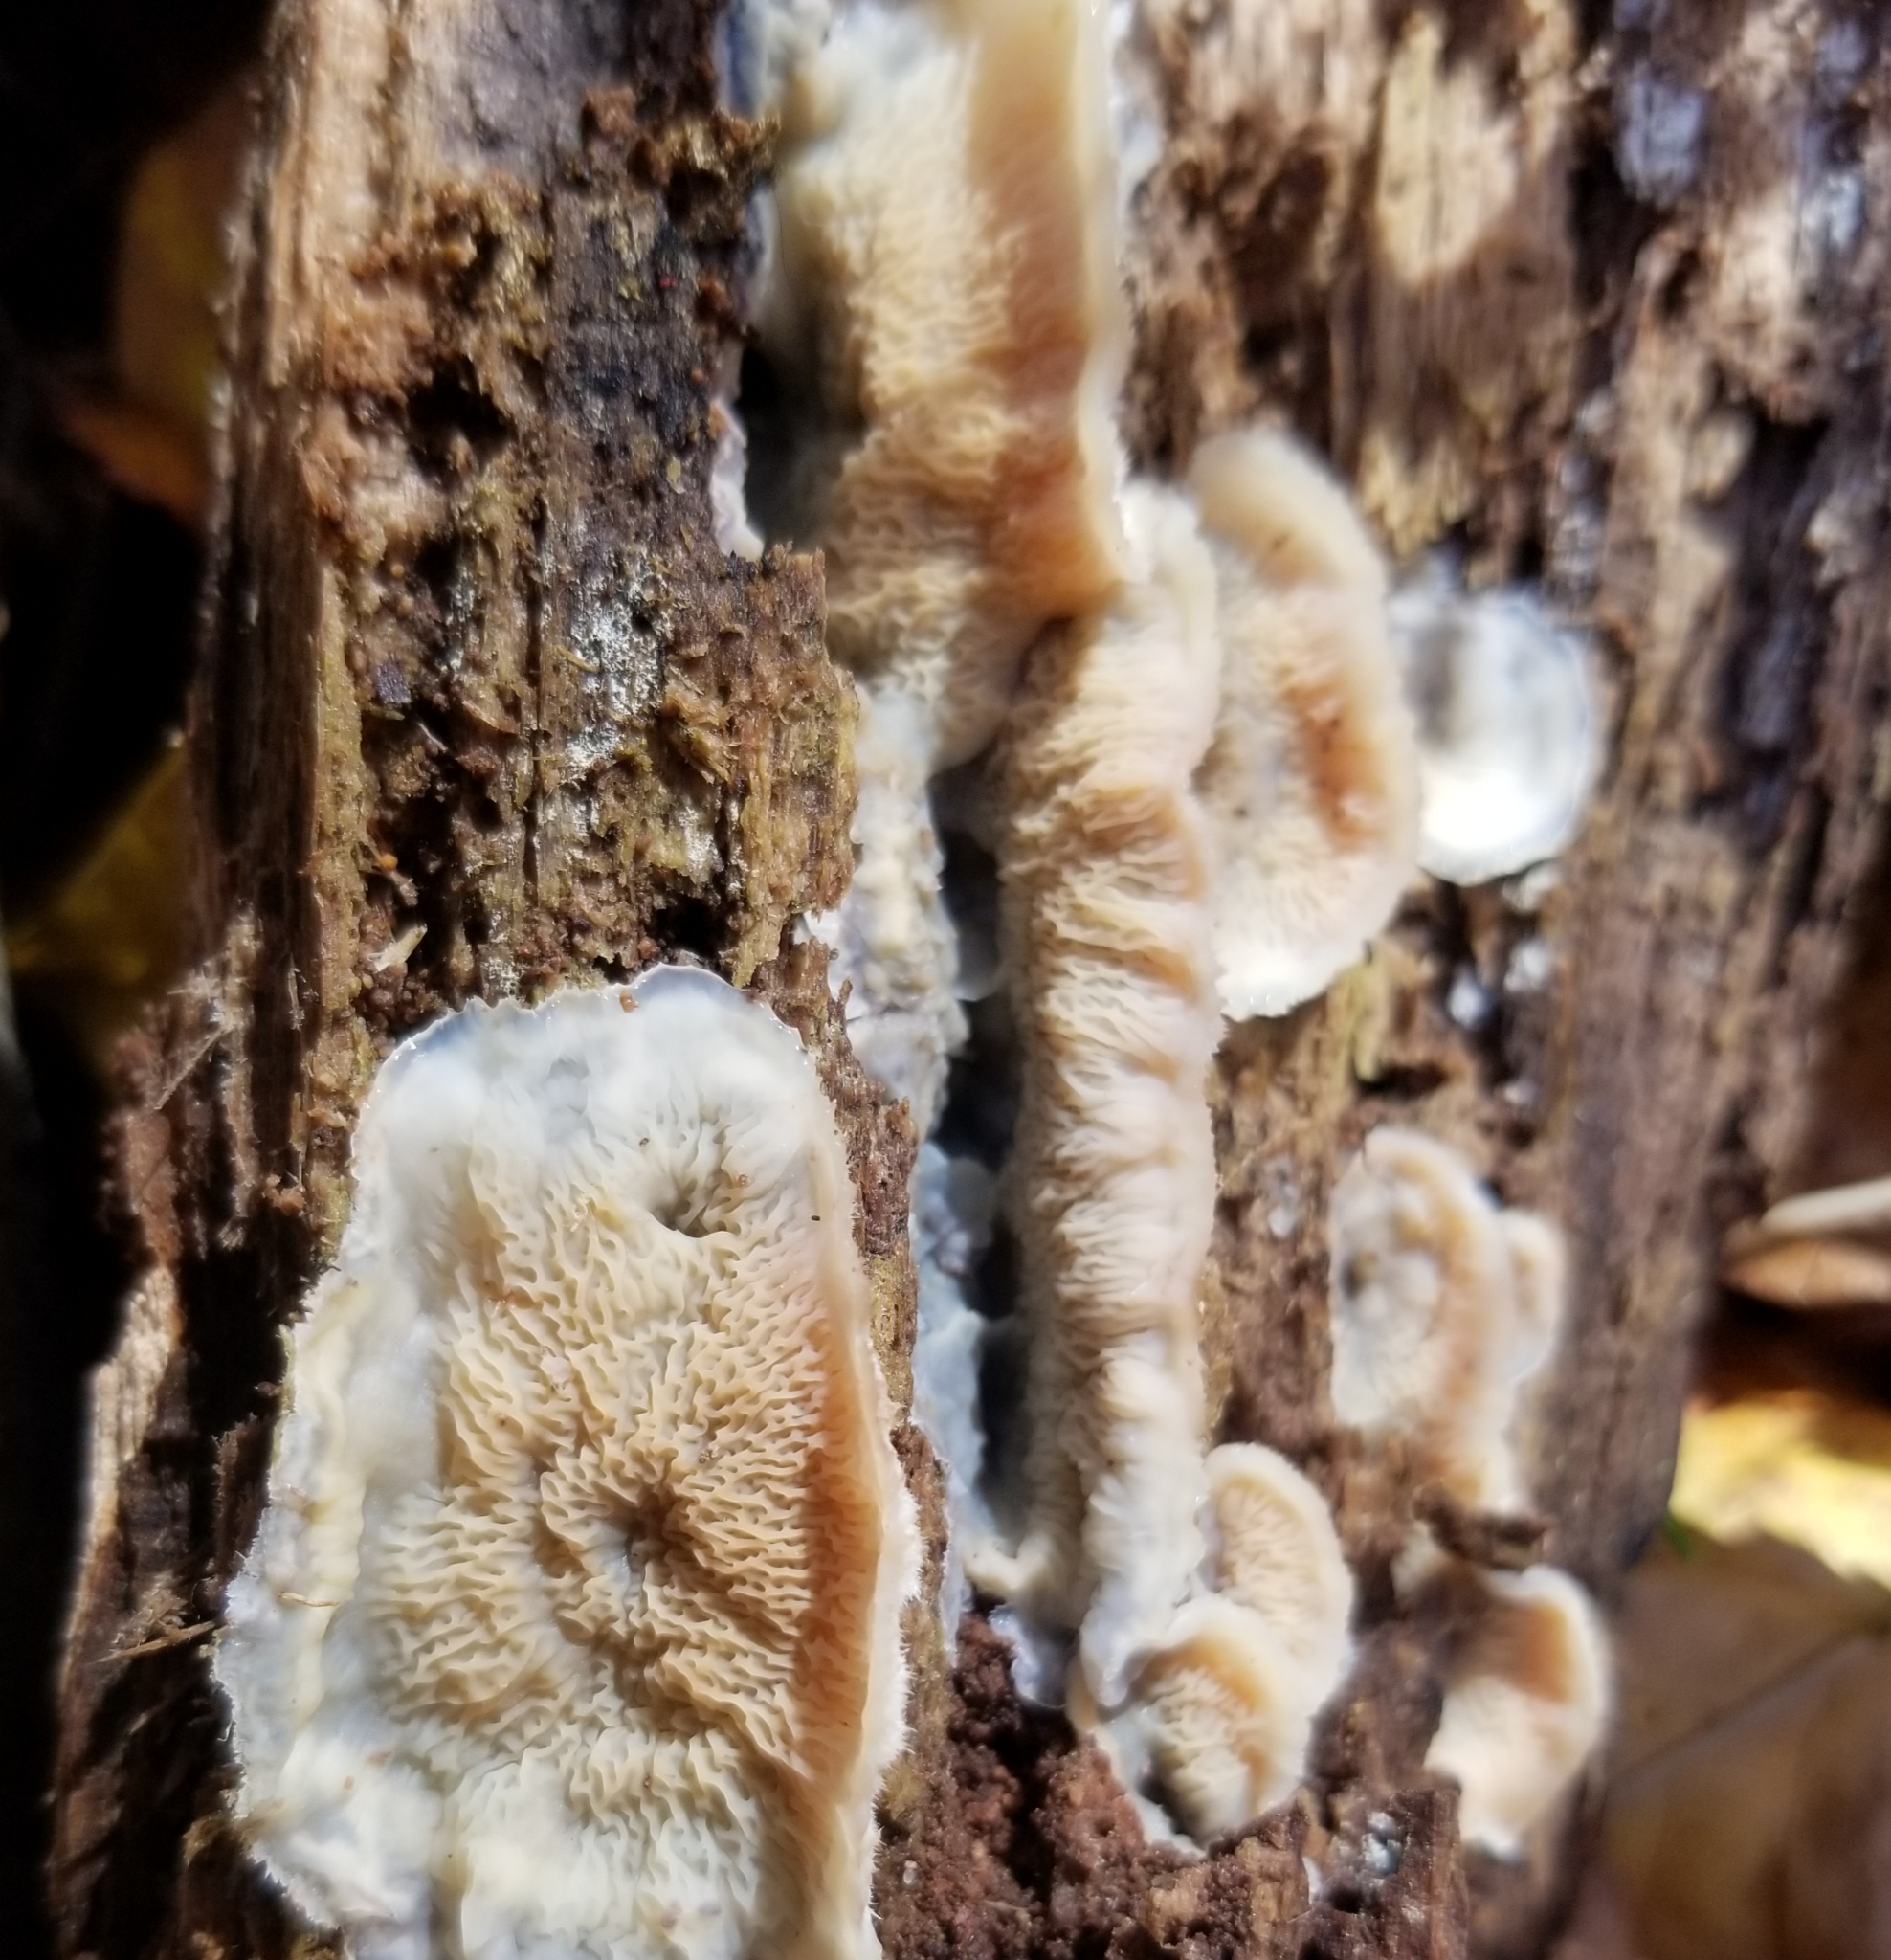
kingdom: Fungi
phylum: Basidiomycota
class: Agaricomycetes
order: Polyporales
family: Meruliaceae
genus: Phlebia
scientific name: Phlebia tremellosa
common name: Jelly rot
